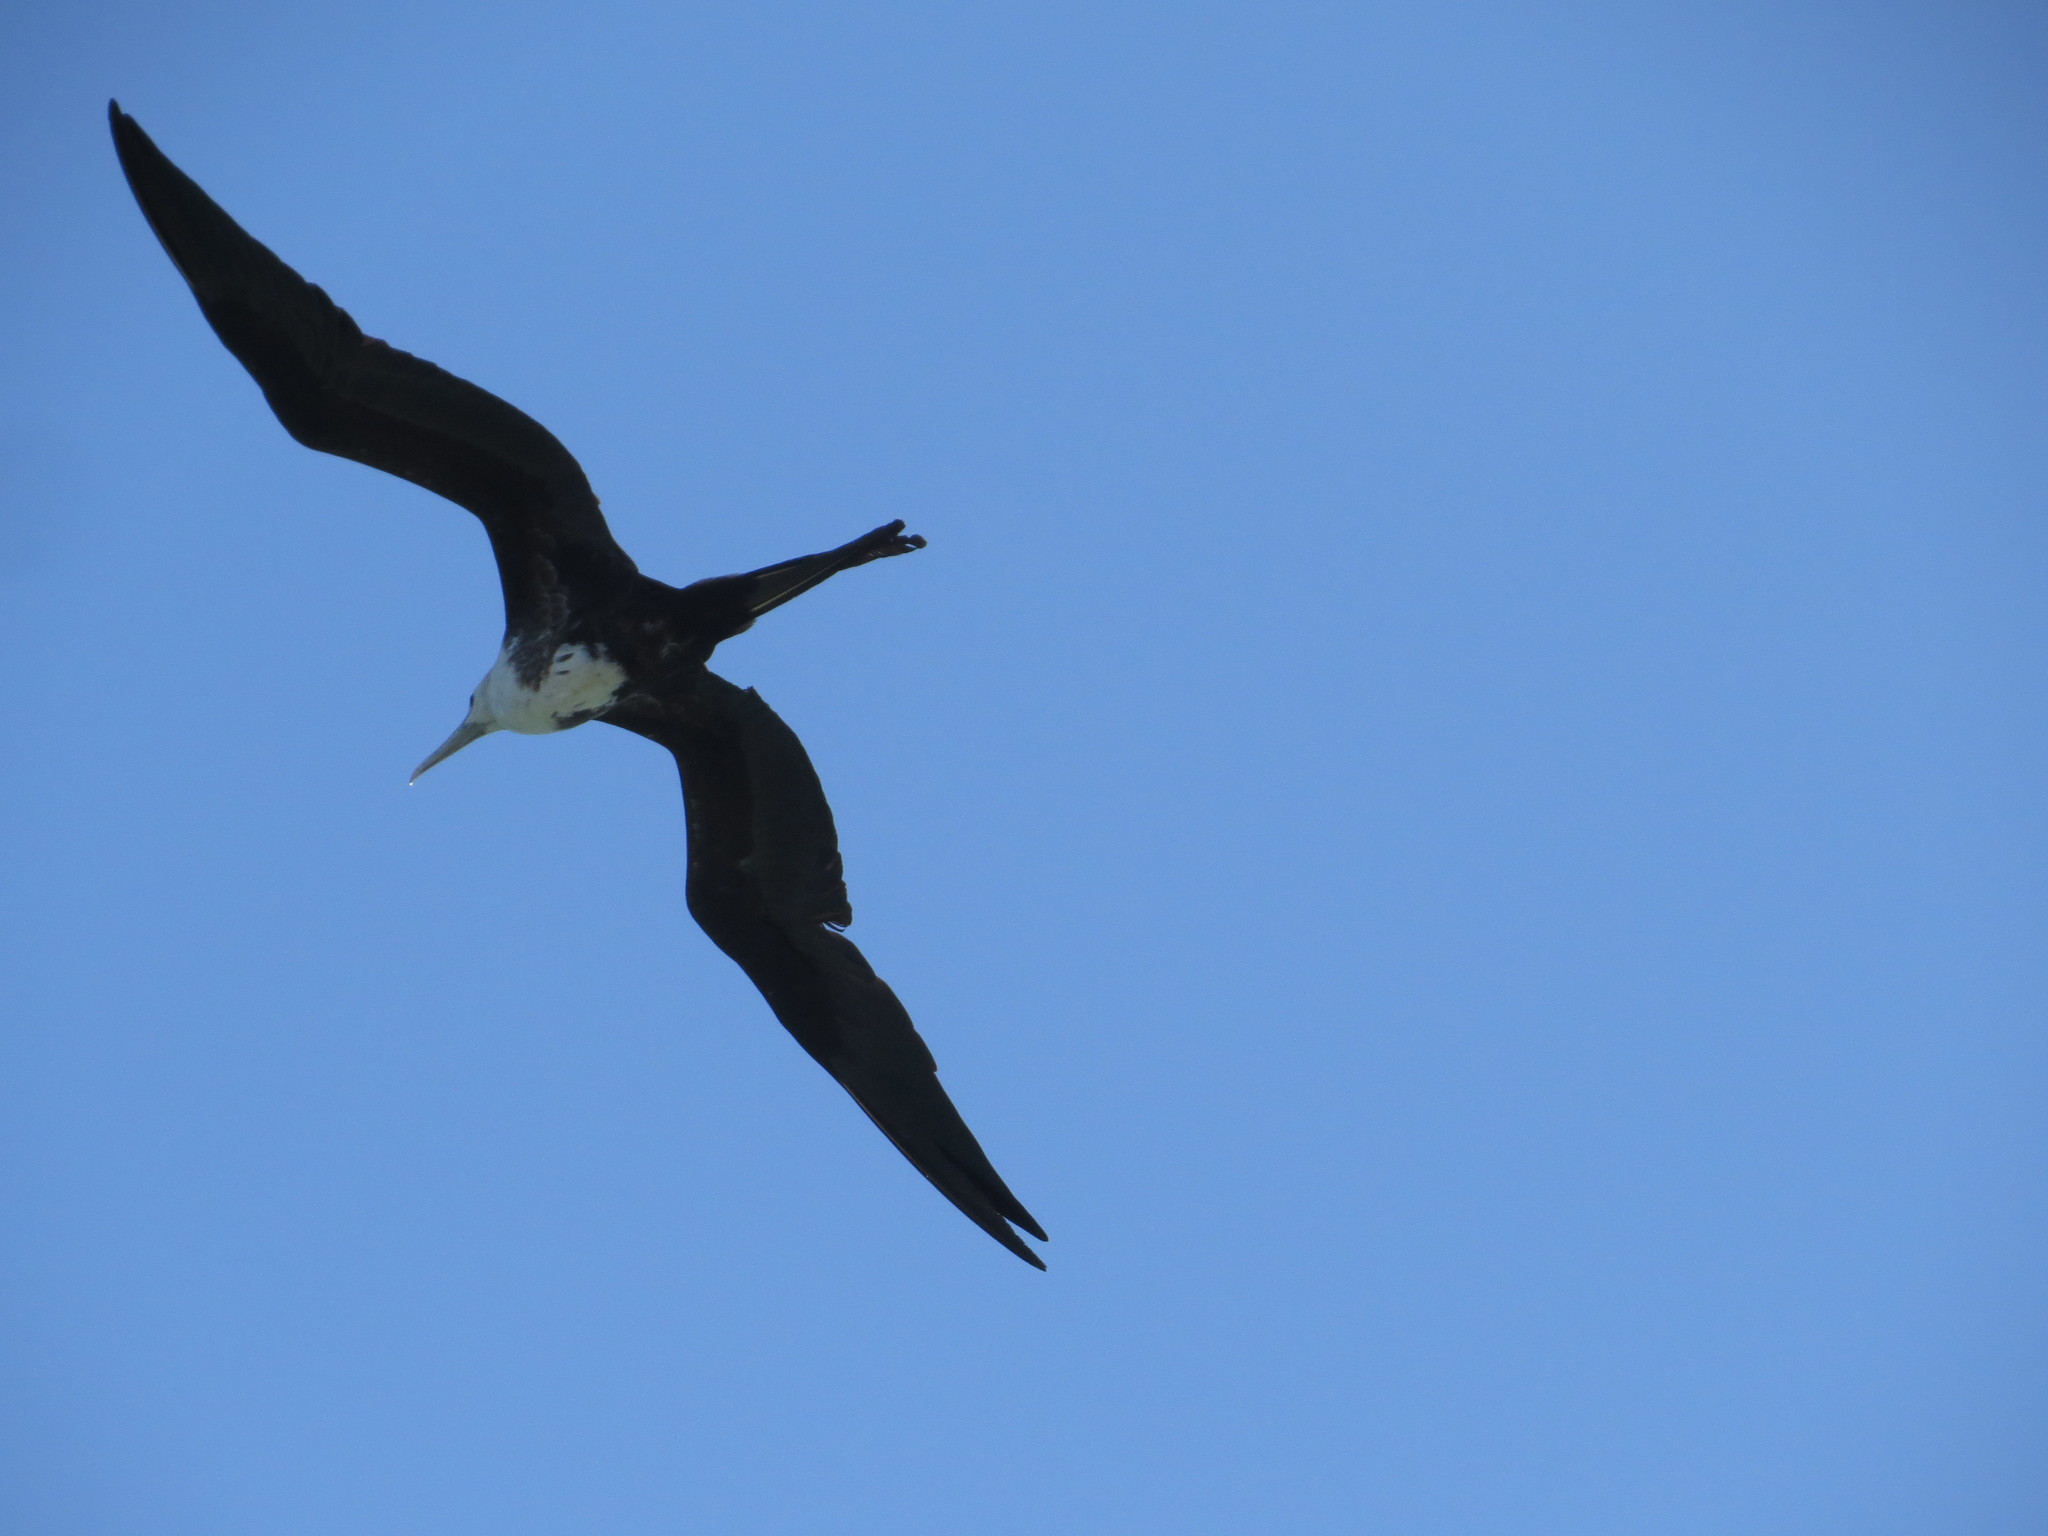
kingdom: Animalia
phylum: Chordata
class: Aves
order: Suliformes
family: Fregatidae
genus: Fregata
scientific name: Fregata magnificens
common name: Magnificent frigatebird
